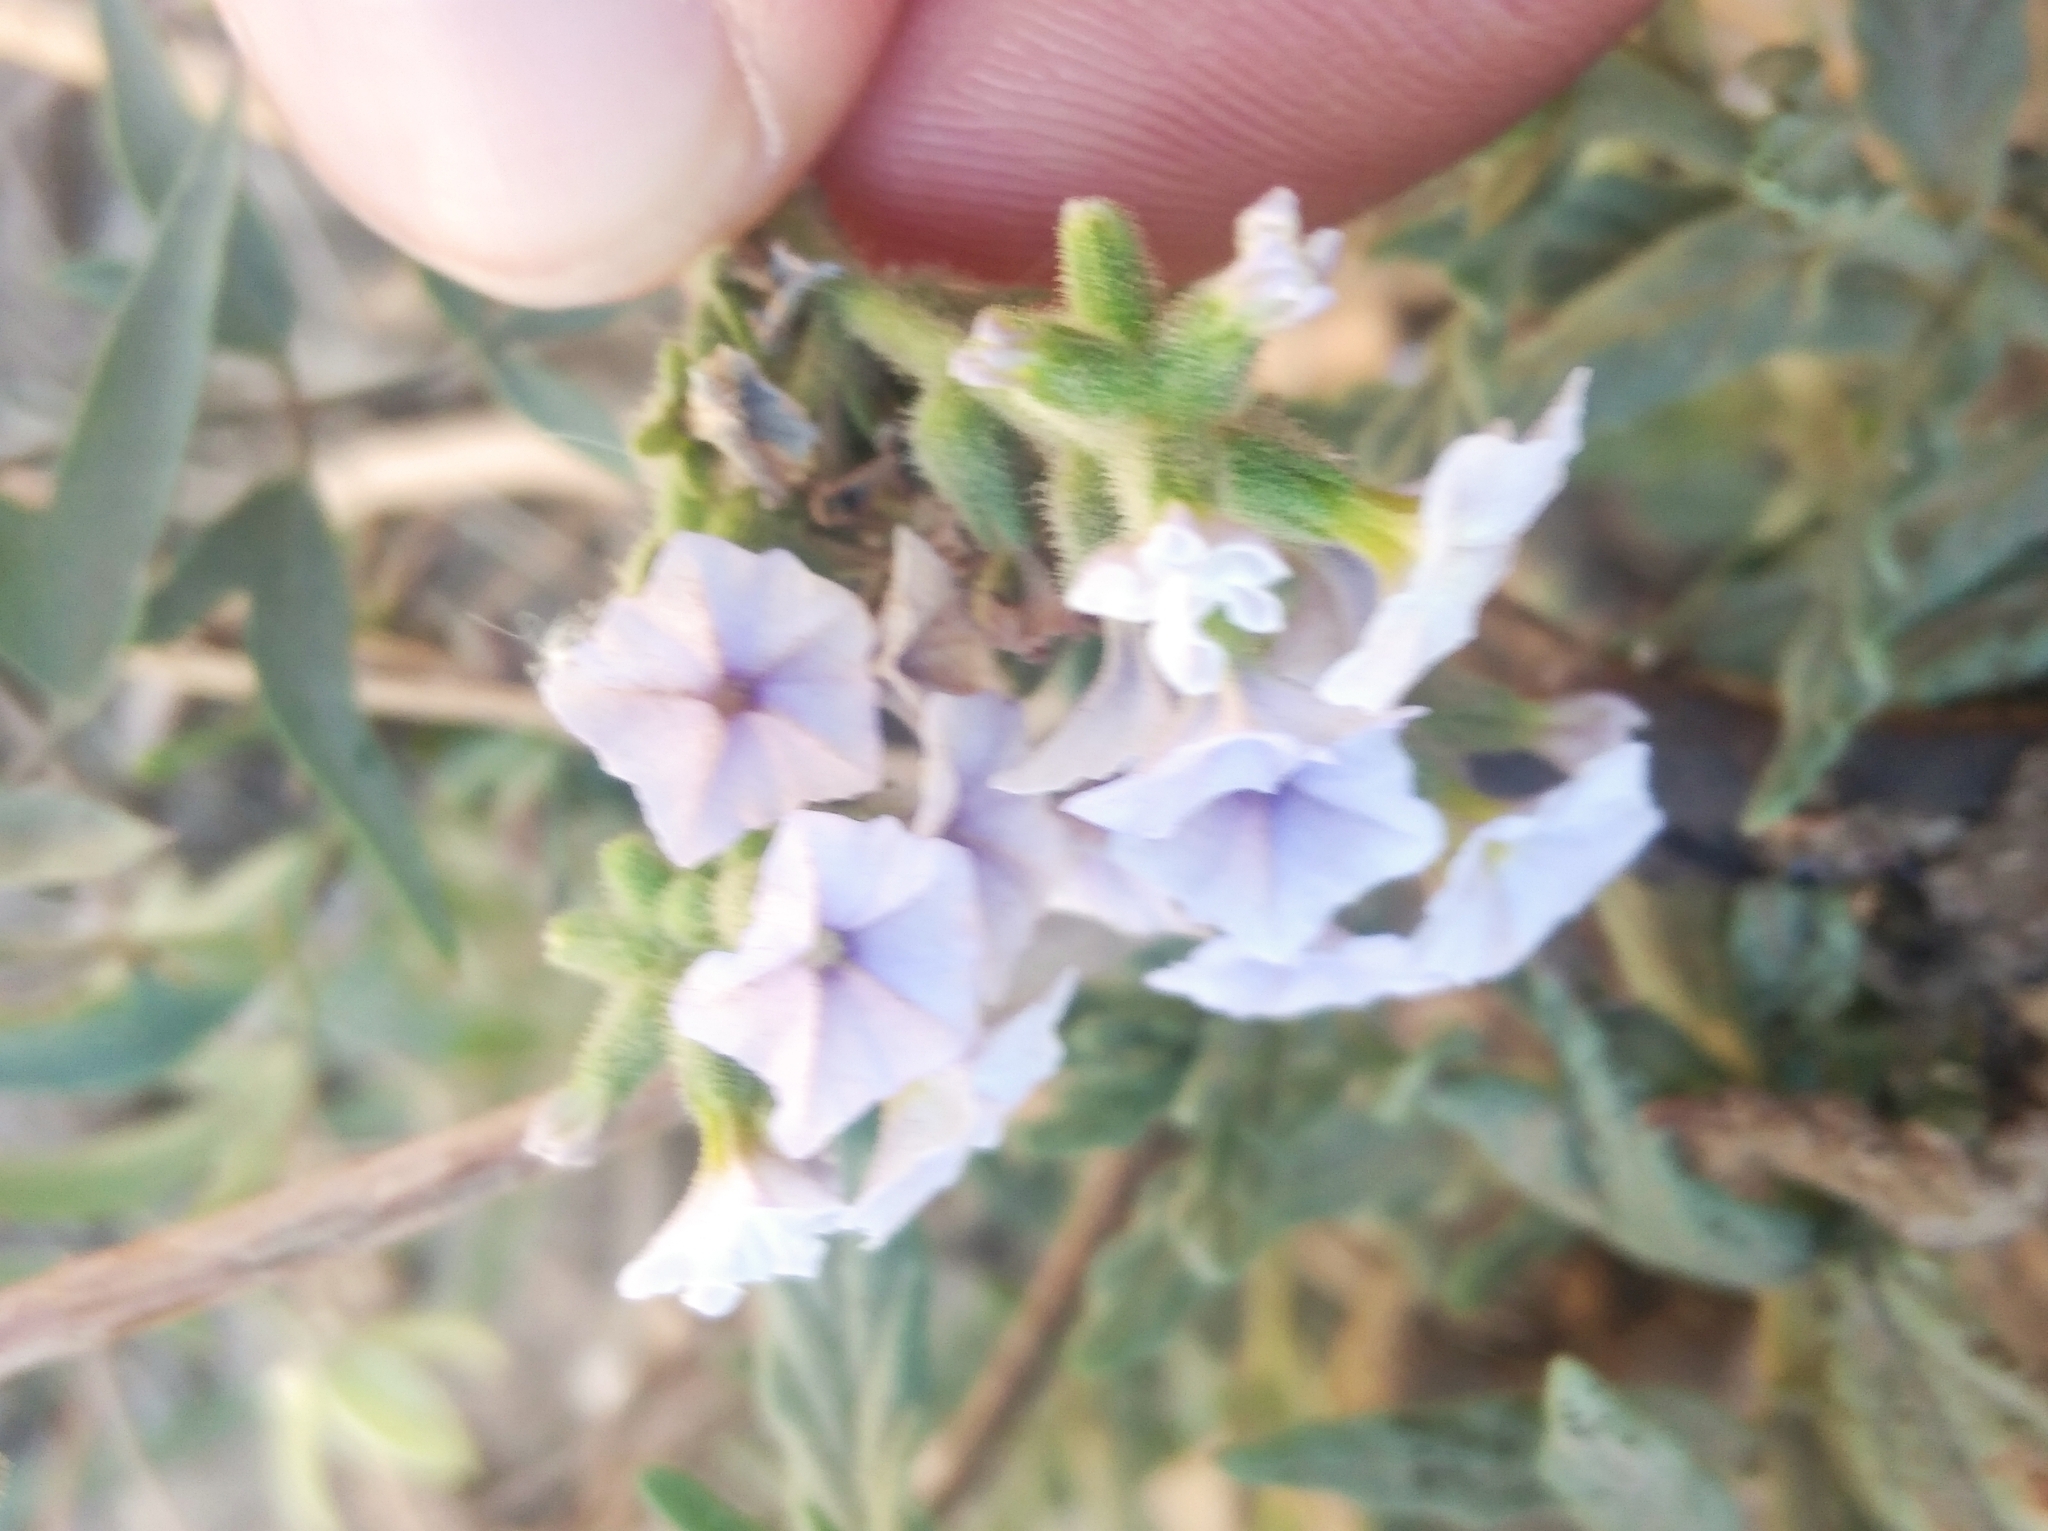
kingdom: Plantae
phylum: Tracheophyta
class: Magnoliopsida
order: Boraginales
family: Heliotropiaceae
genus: Heliotropium
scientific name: Heliotropium amplexicaule
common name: Clasping heliotrope
